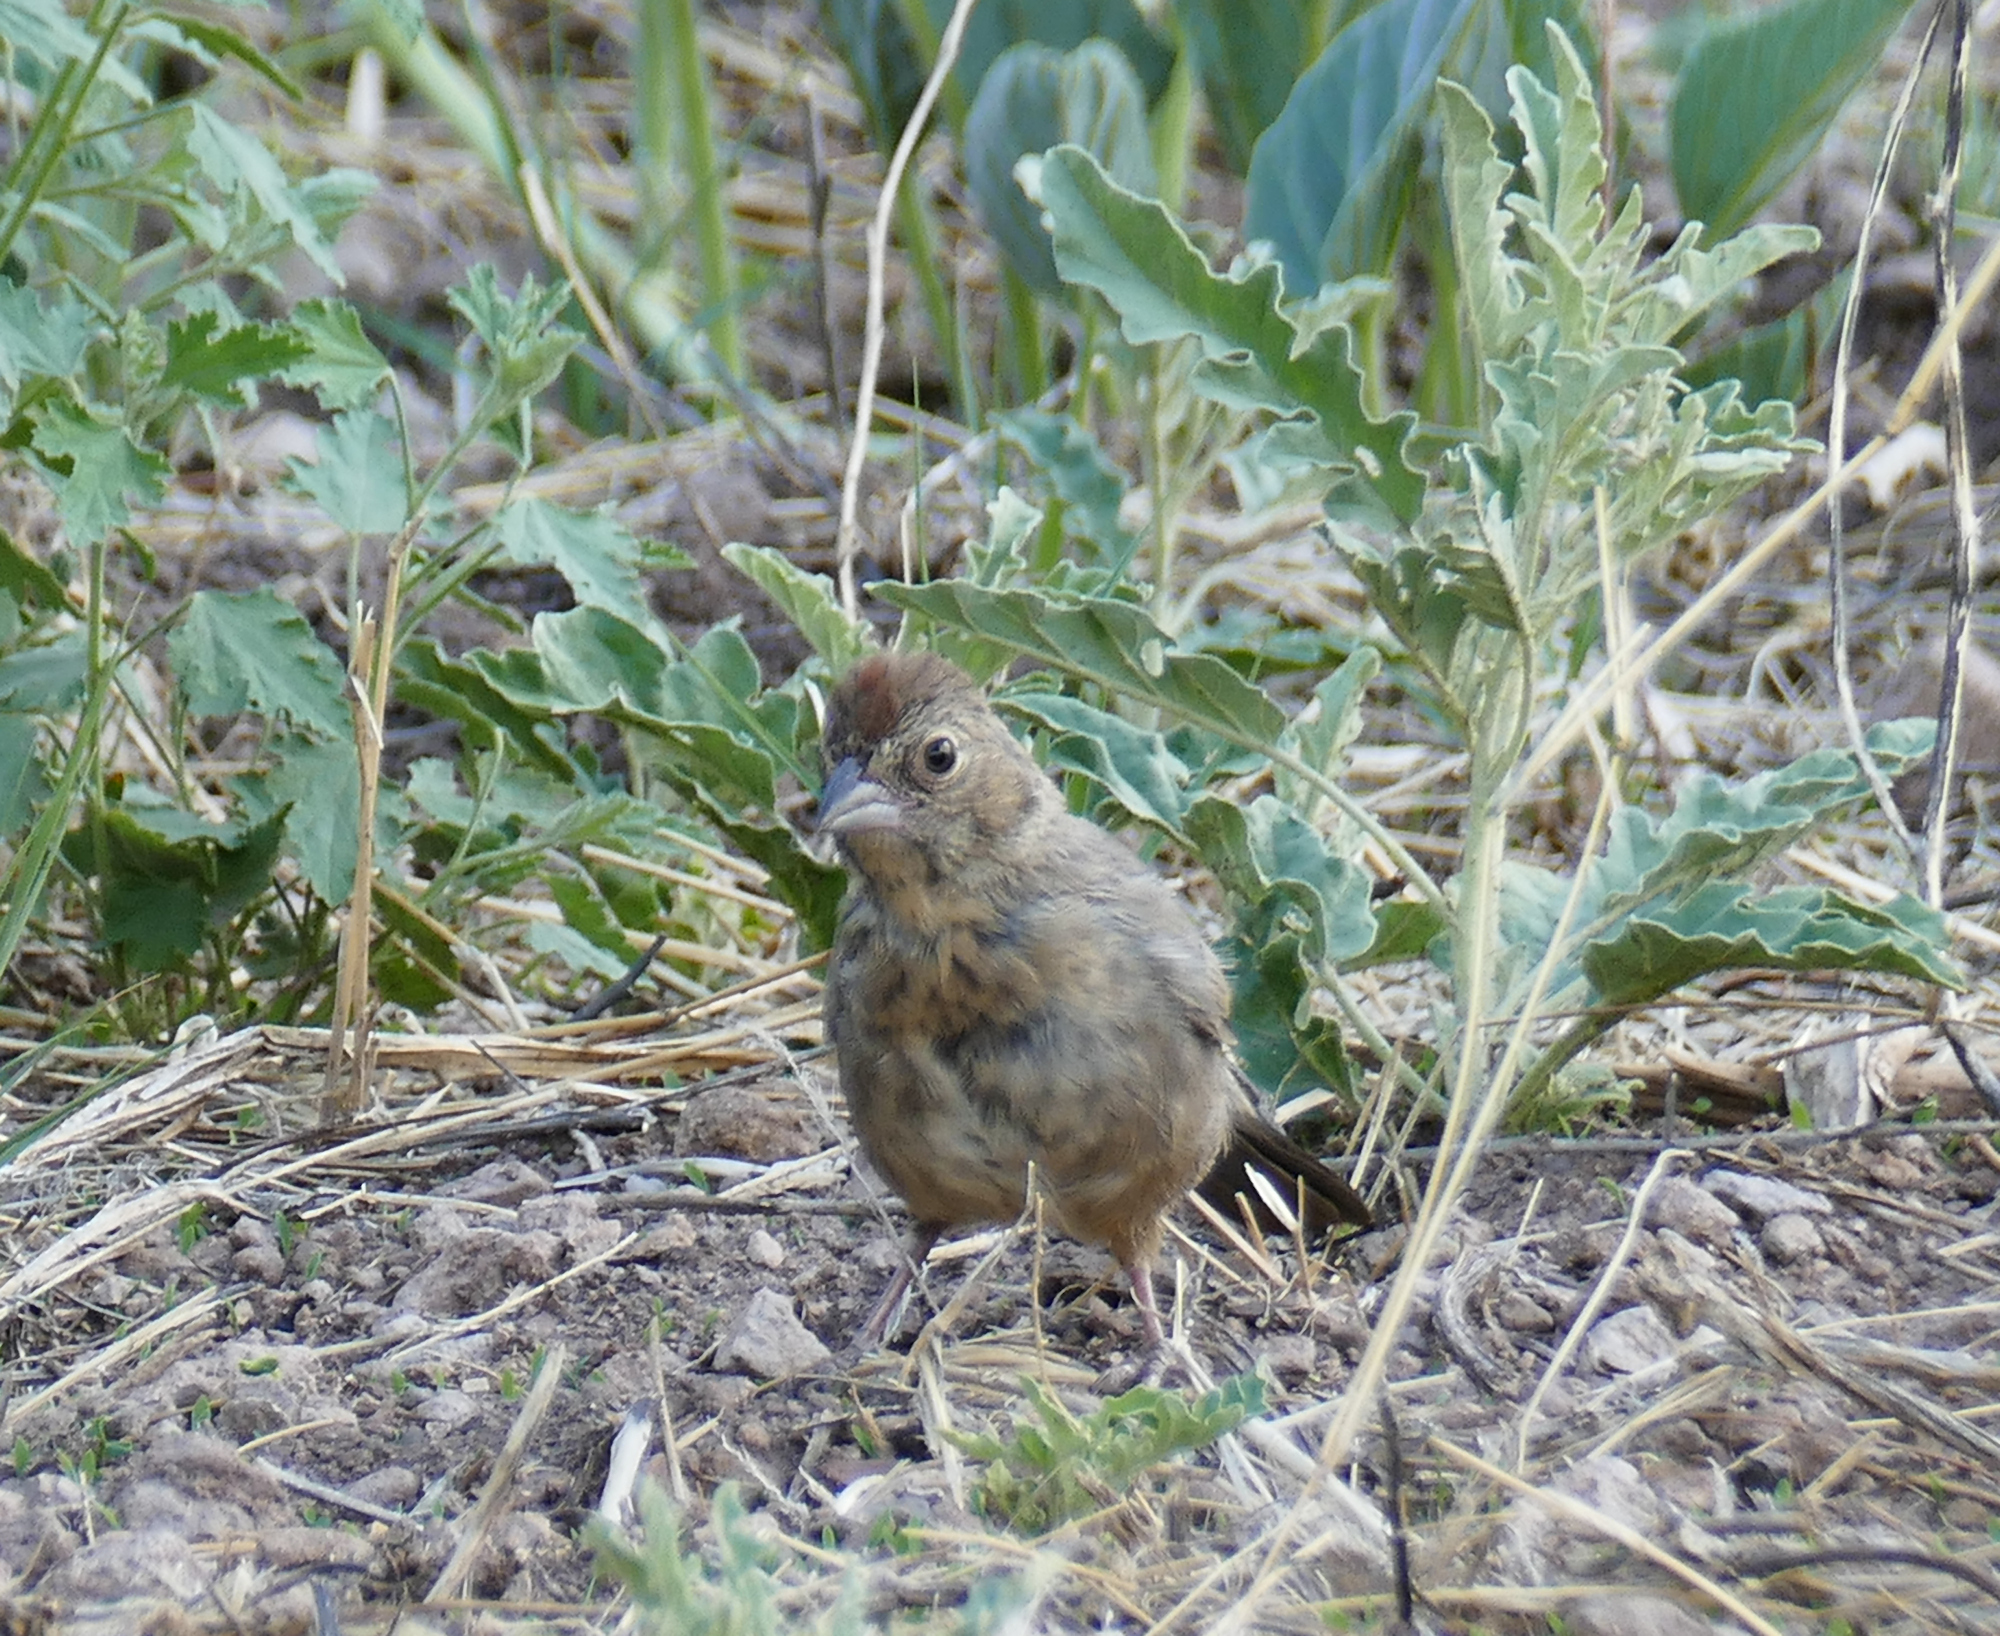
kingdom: Animalia
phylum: Chordata
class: Aves
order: Passeriformes
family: Passerellidae
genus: Melozone
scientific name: Melozone fusca
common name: Canyon towhee
